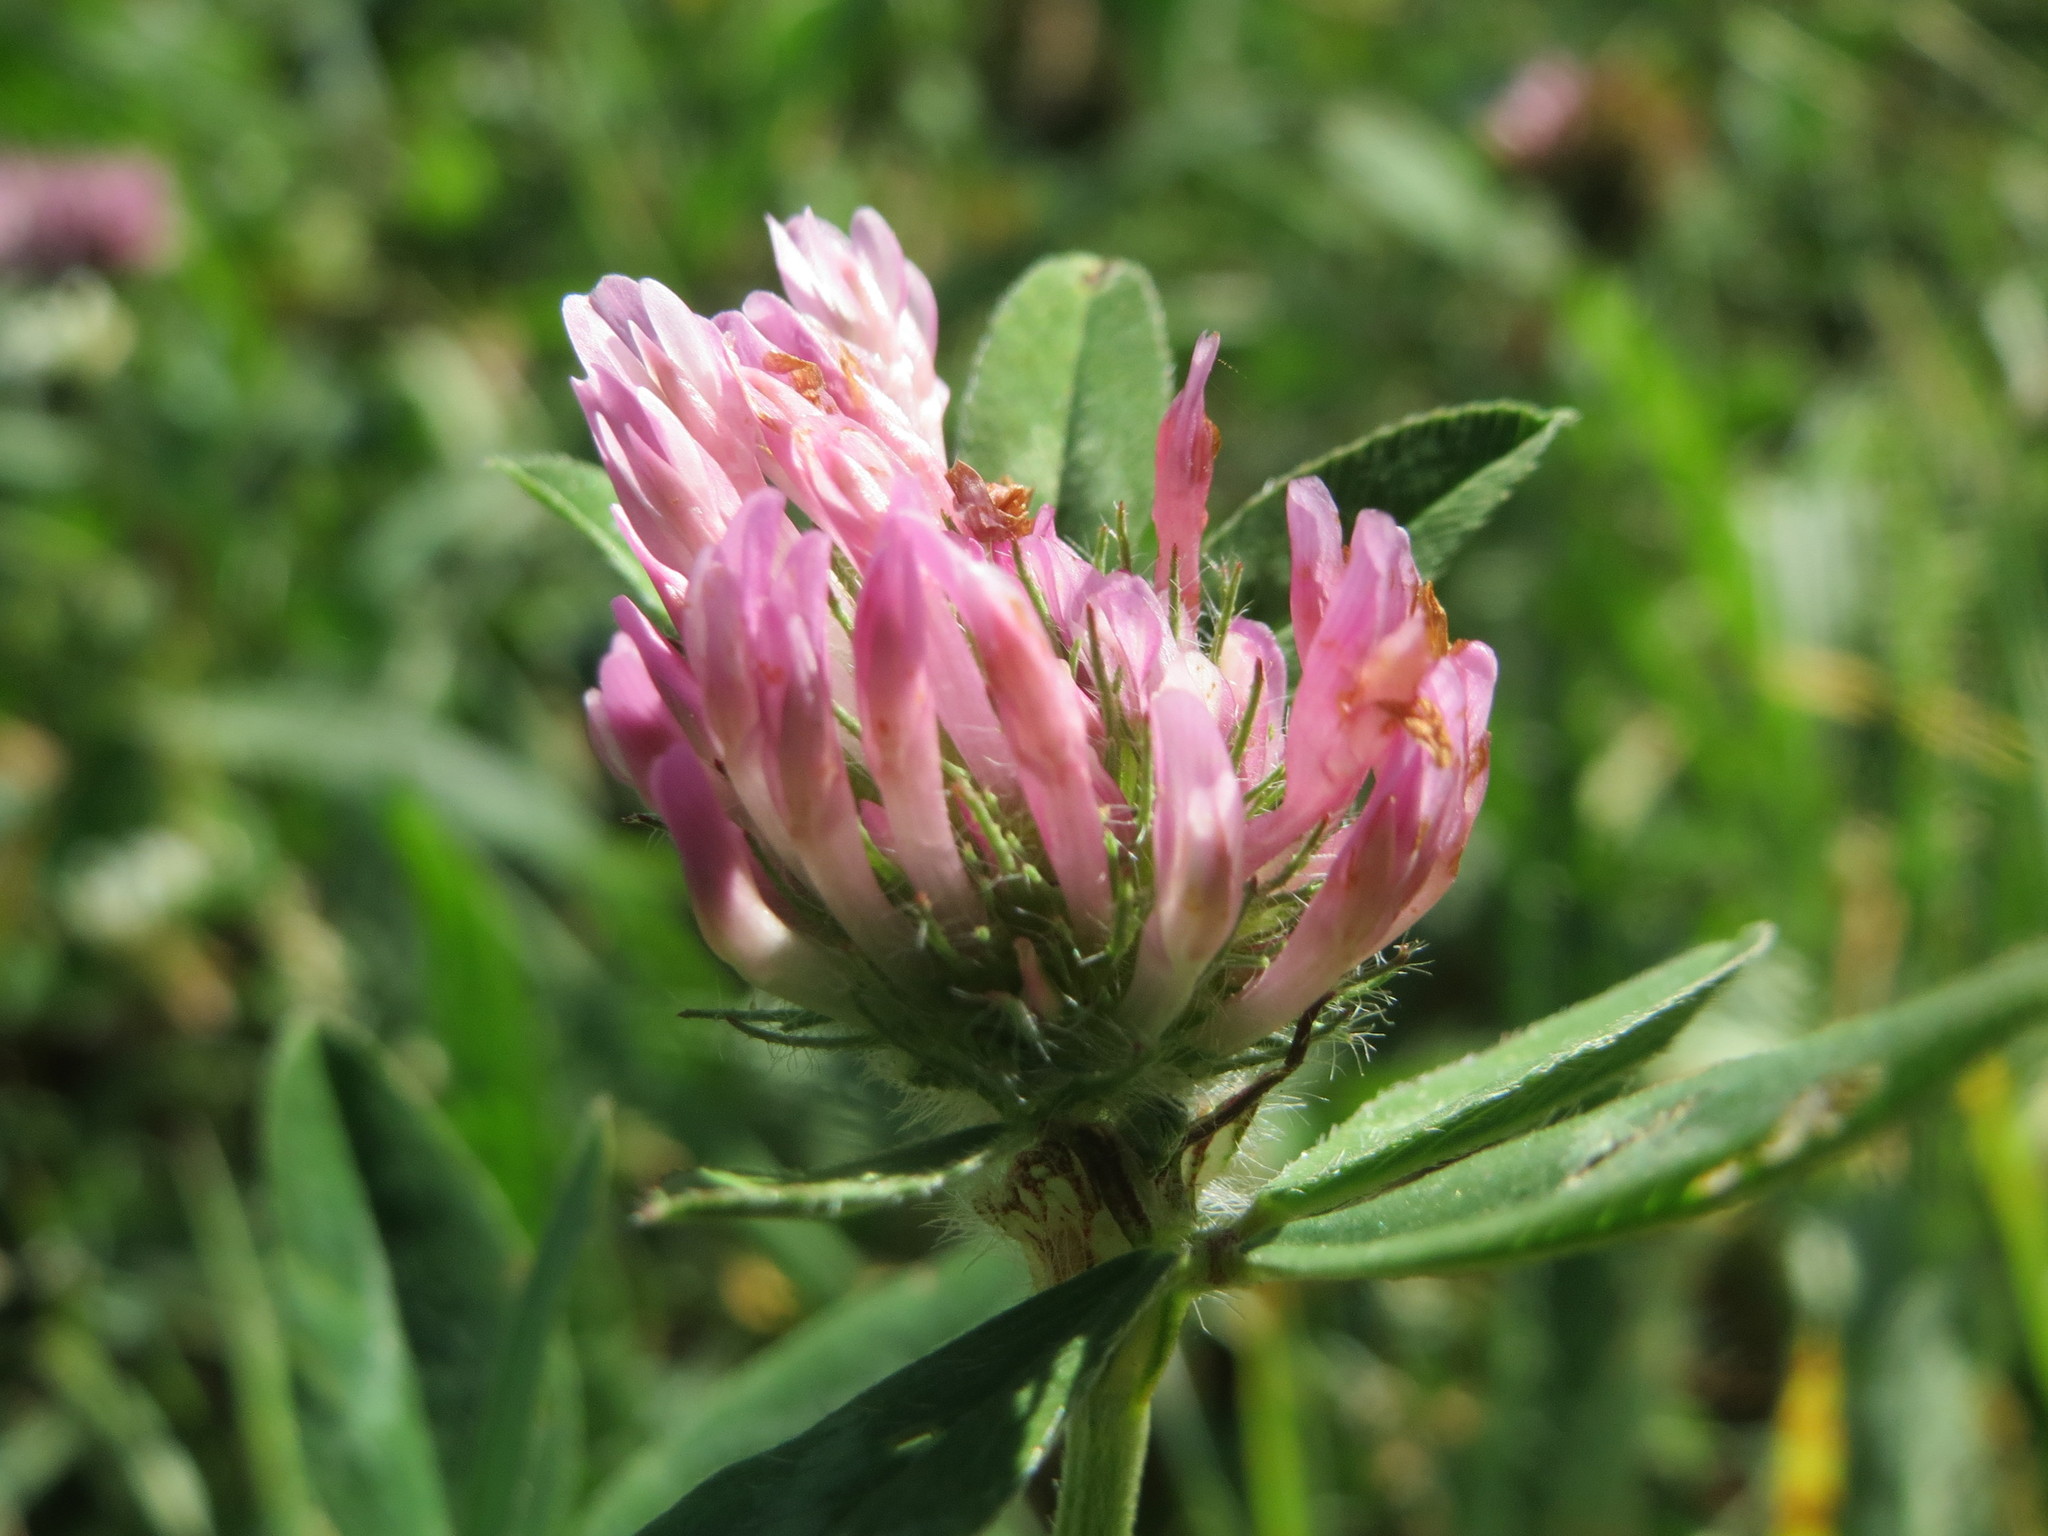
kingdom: Plantae
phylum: Tracheophyta
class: Magnoliopsida
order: Fabales
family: Fabaceae
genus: Trifolium
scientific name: Trifolium pratense
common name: Red clover
